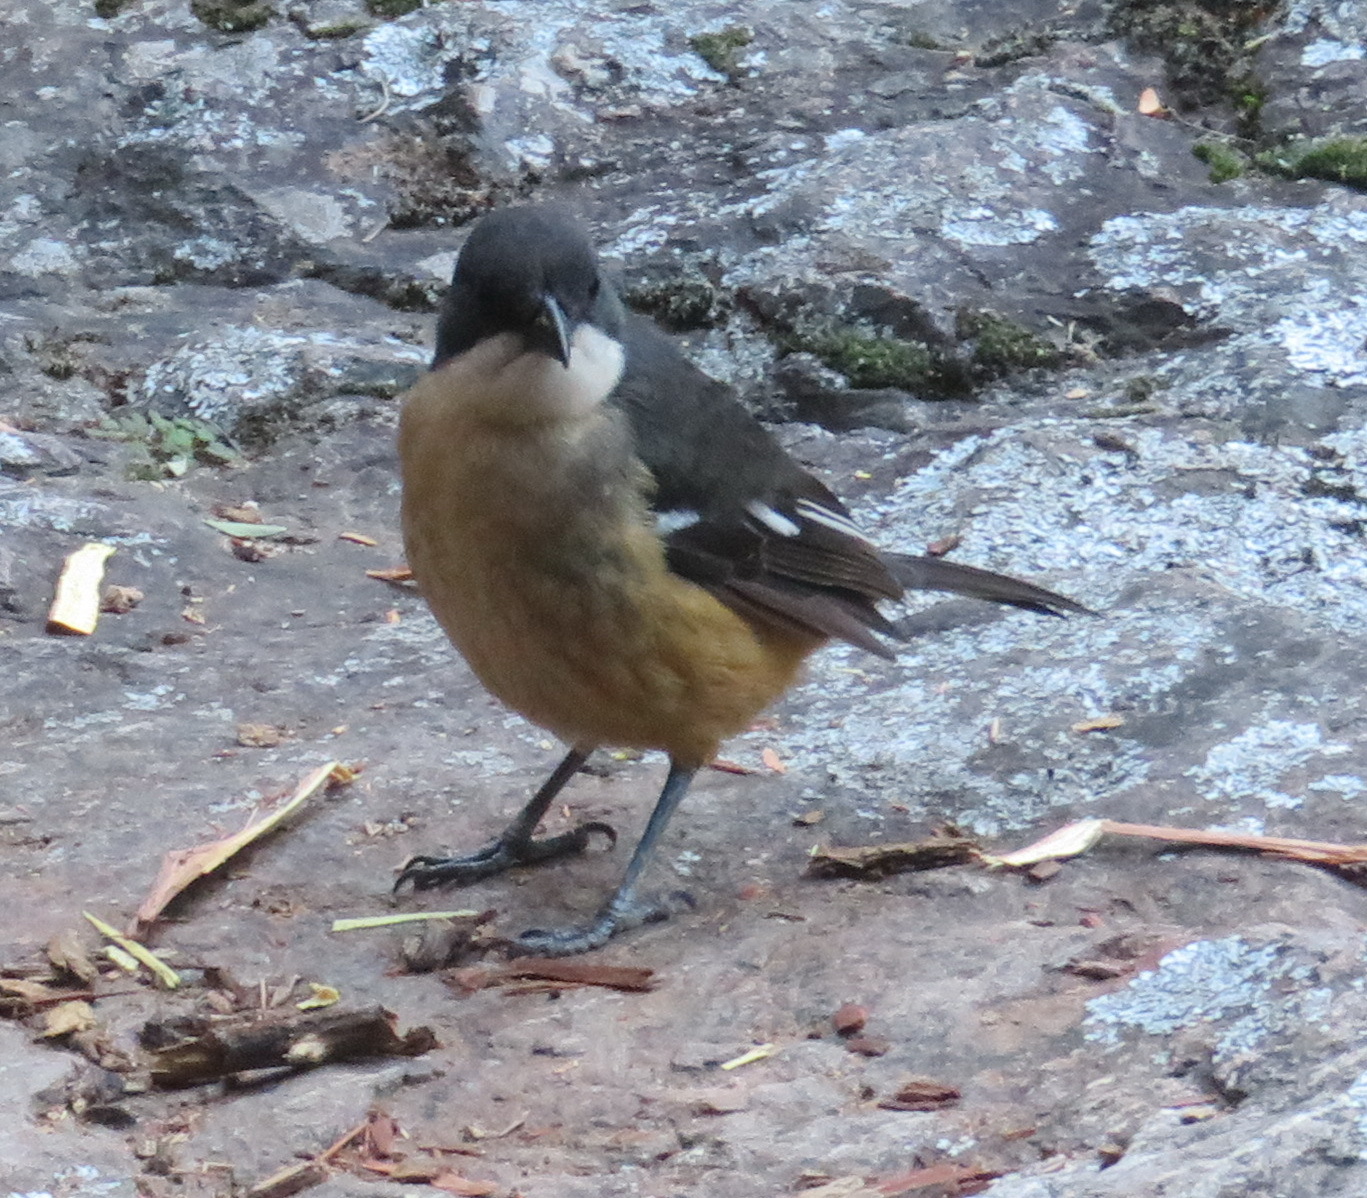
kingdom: Animalia
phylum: Chordata
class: Aves
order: Passeriformes
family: Malaconotidae
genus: Laniarius
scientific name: Laniarius ferrugineus
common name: Southern boubou
